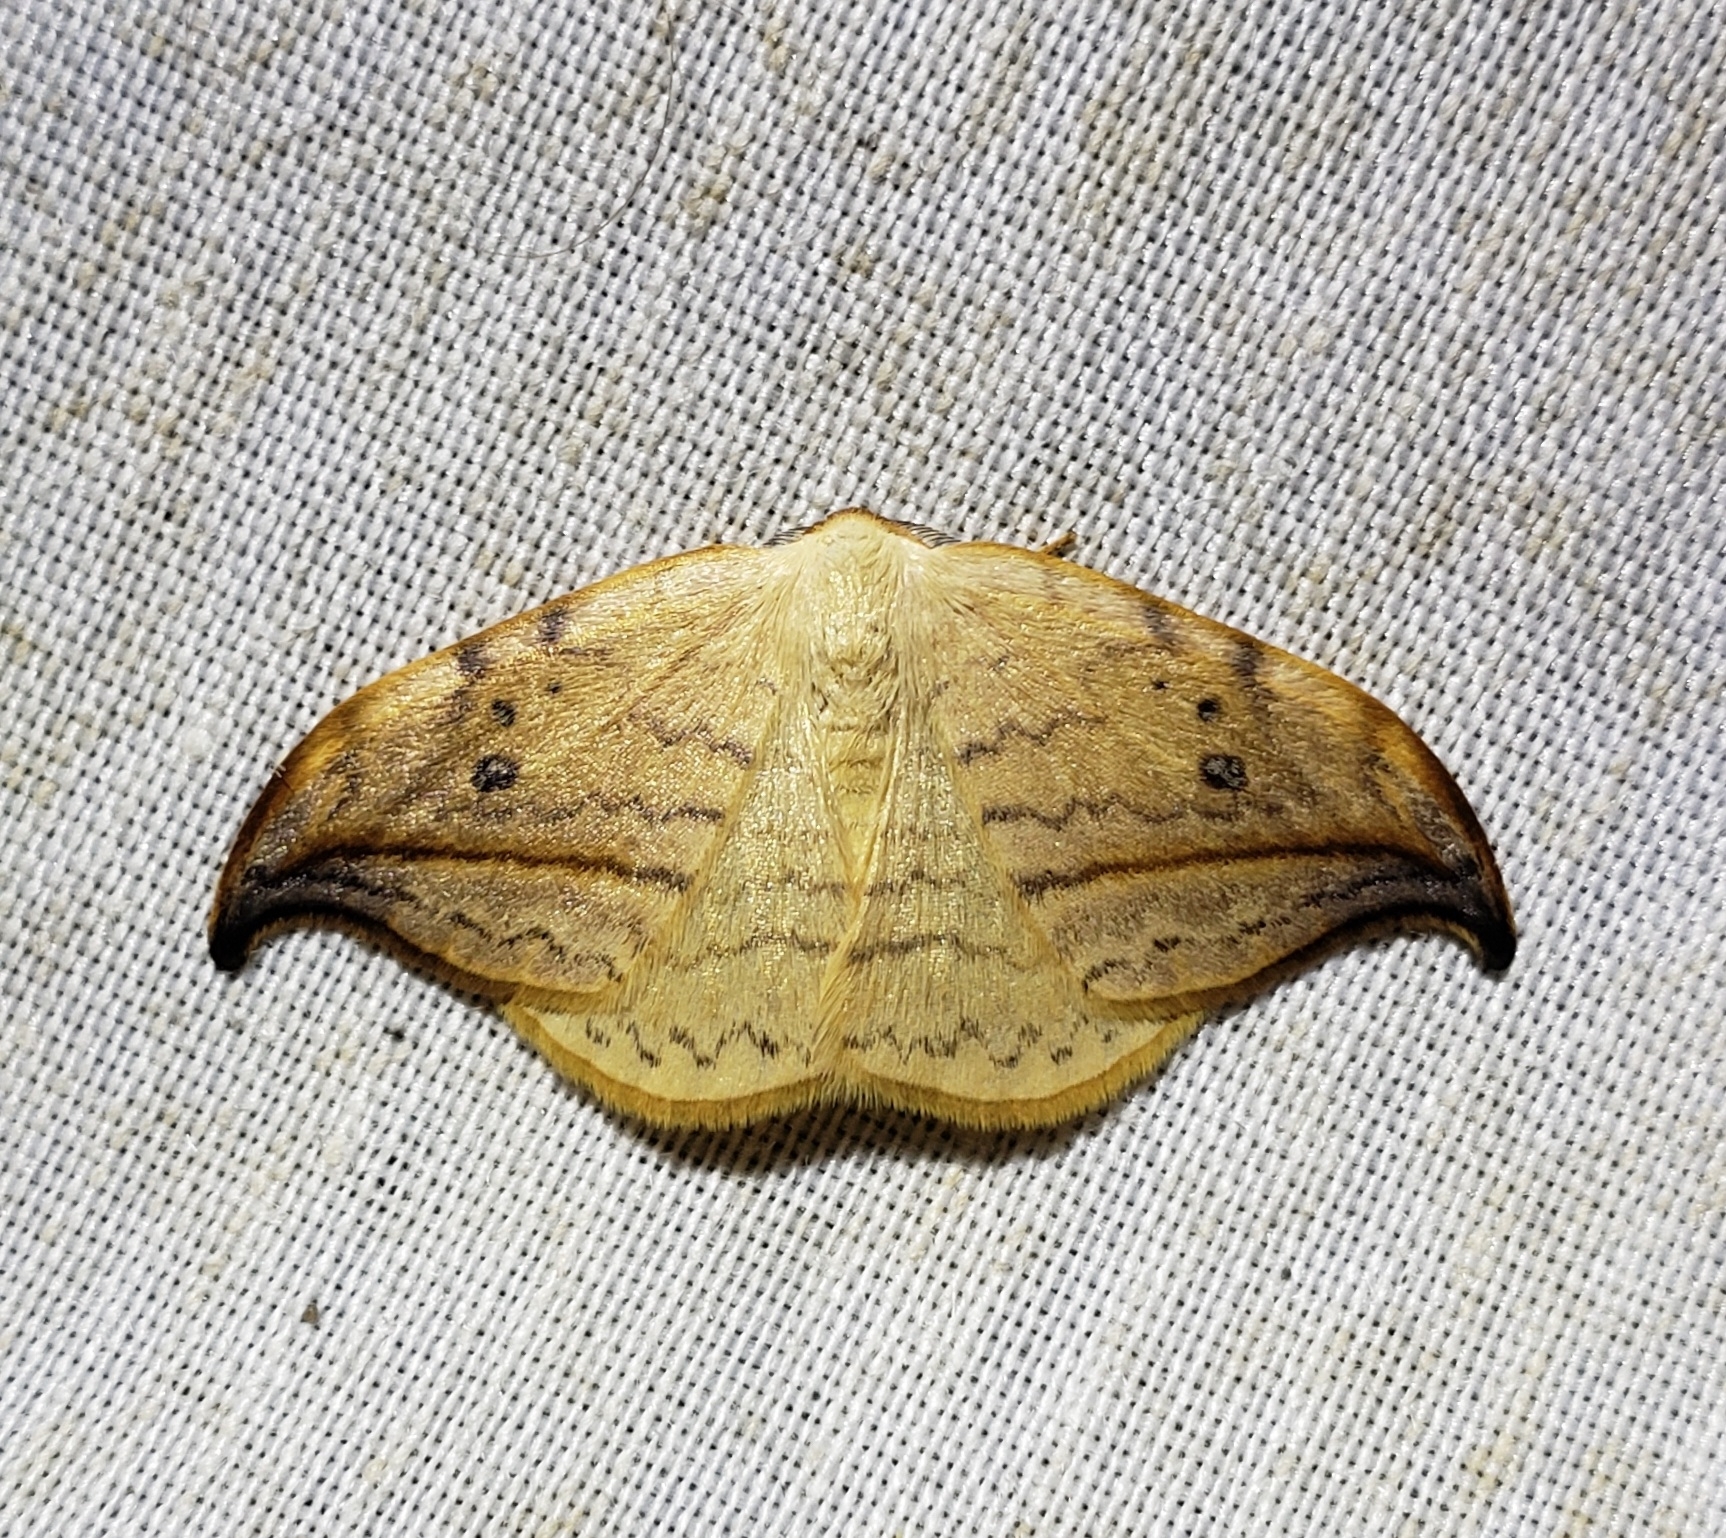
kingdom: Animalia
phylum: Arthropoda
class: Insecta
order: Lepidoptera
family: Drepanidae
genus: Drepana
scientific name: Drepana arcuata
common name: Arched hooktip moth
